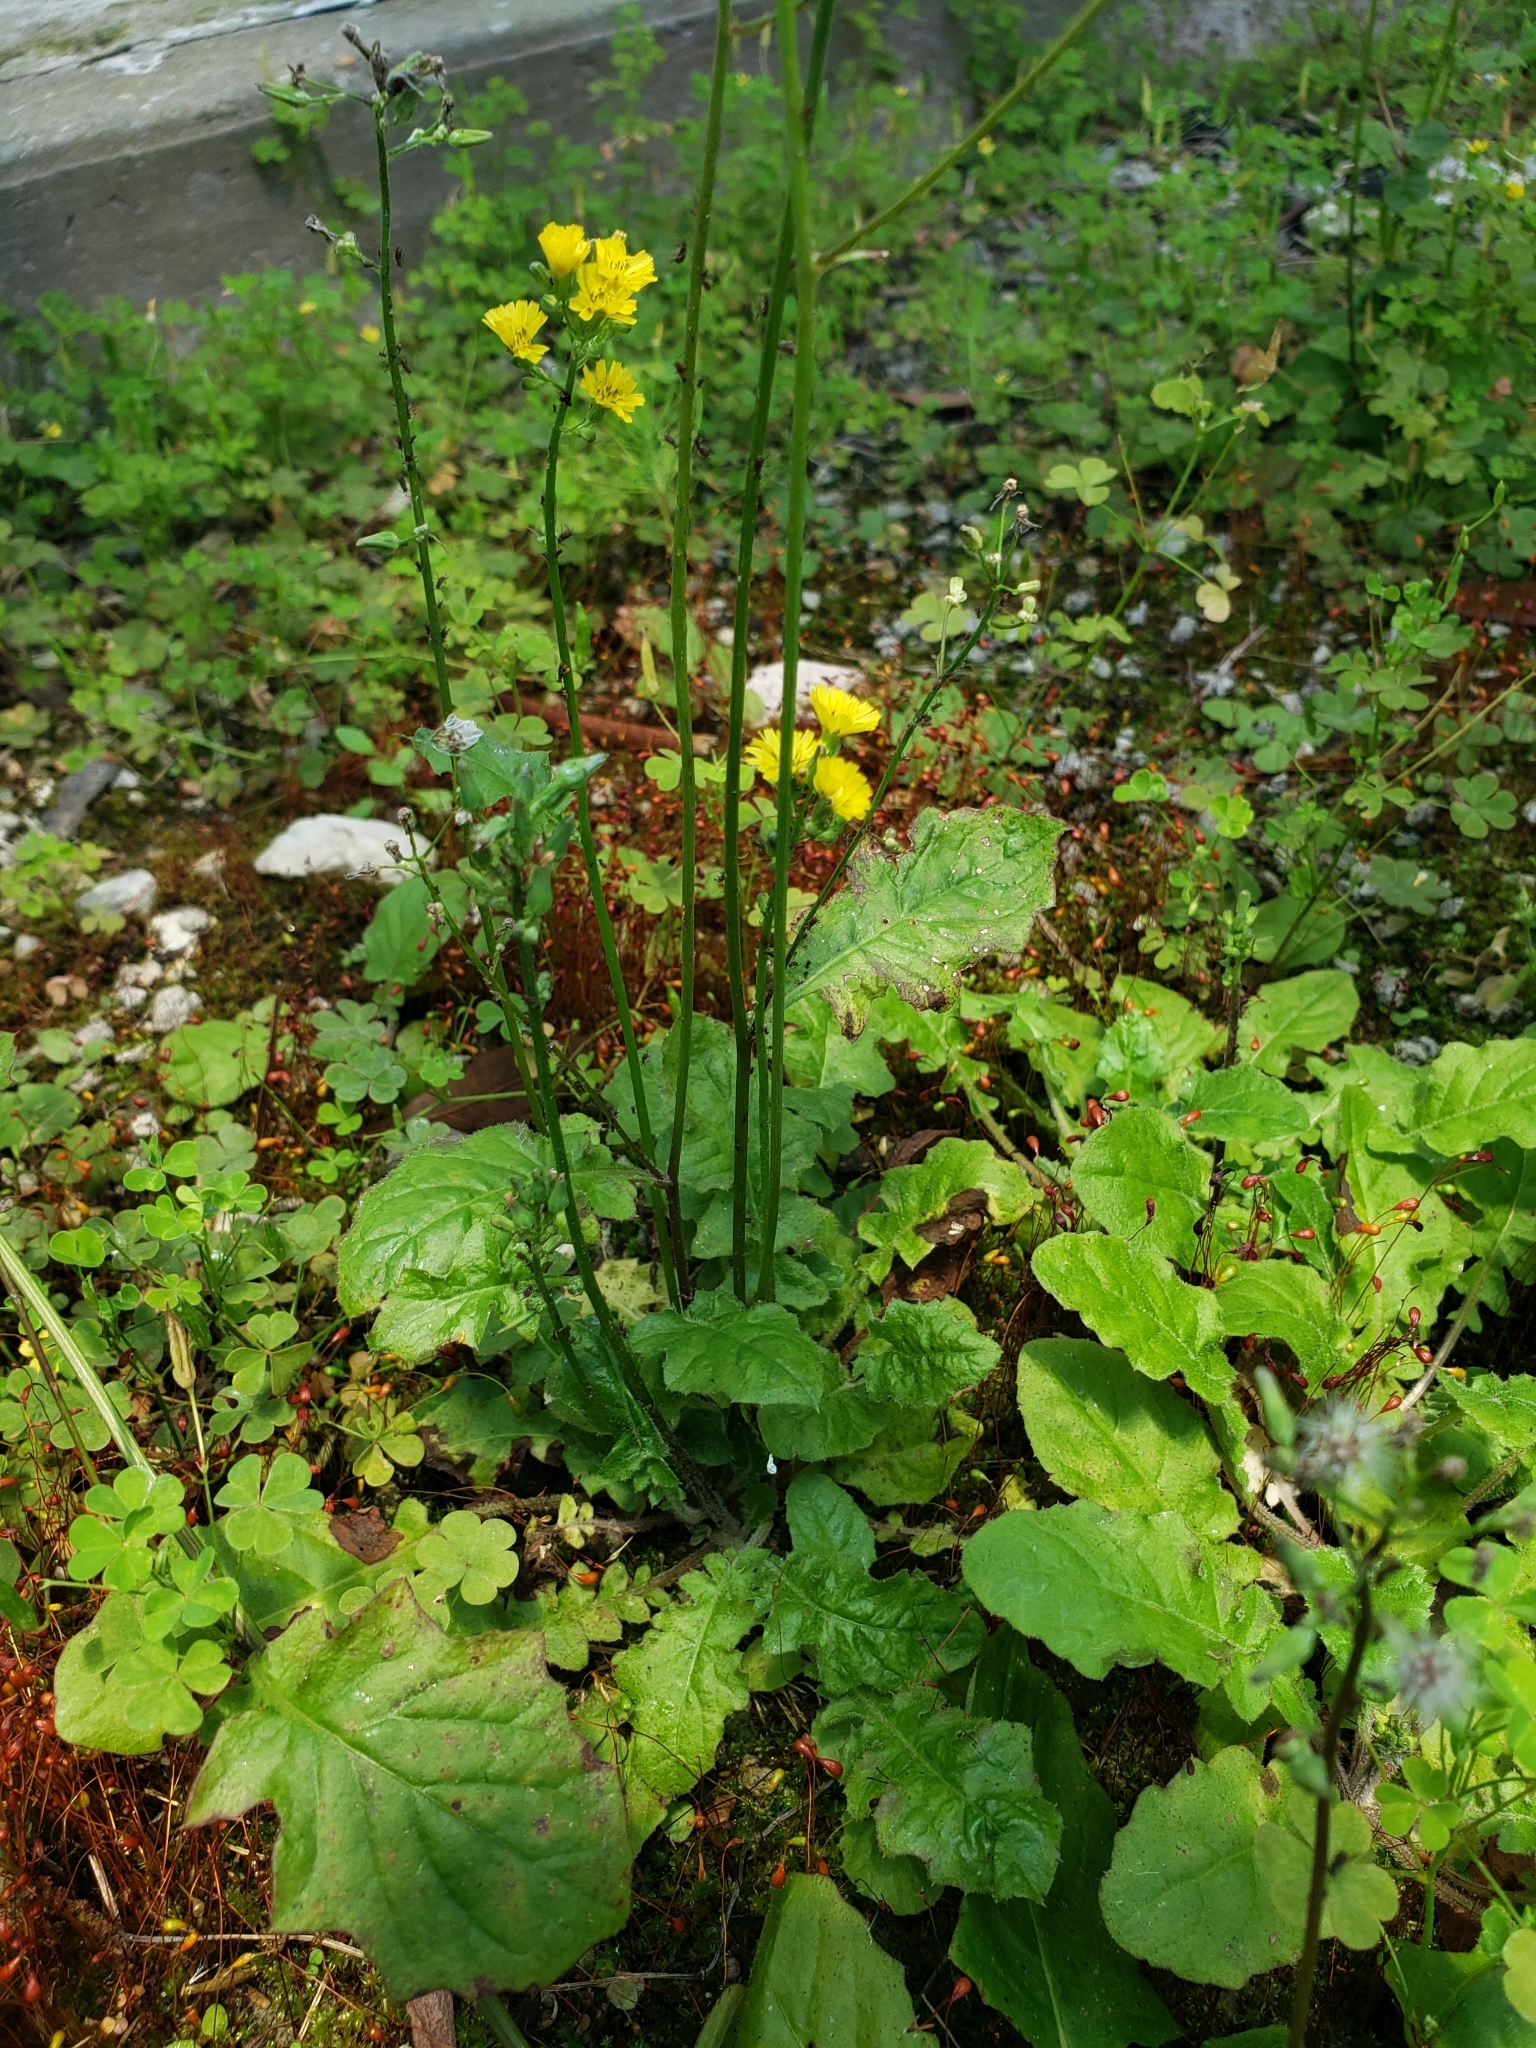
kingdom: Plantae
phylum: Tracheophyta
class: Magnoliopsida
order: Asterales
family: Asteraceae
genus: Youngia
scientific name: Youngia japonica
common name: Oriental false hawksbeard
